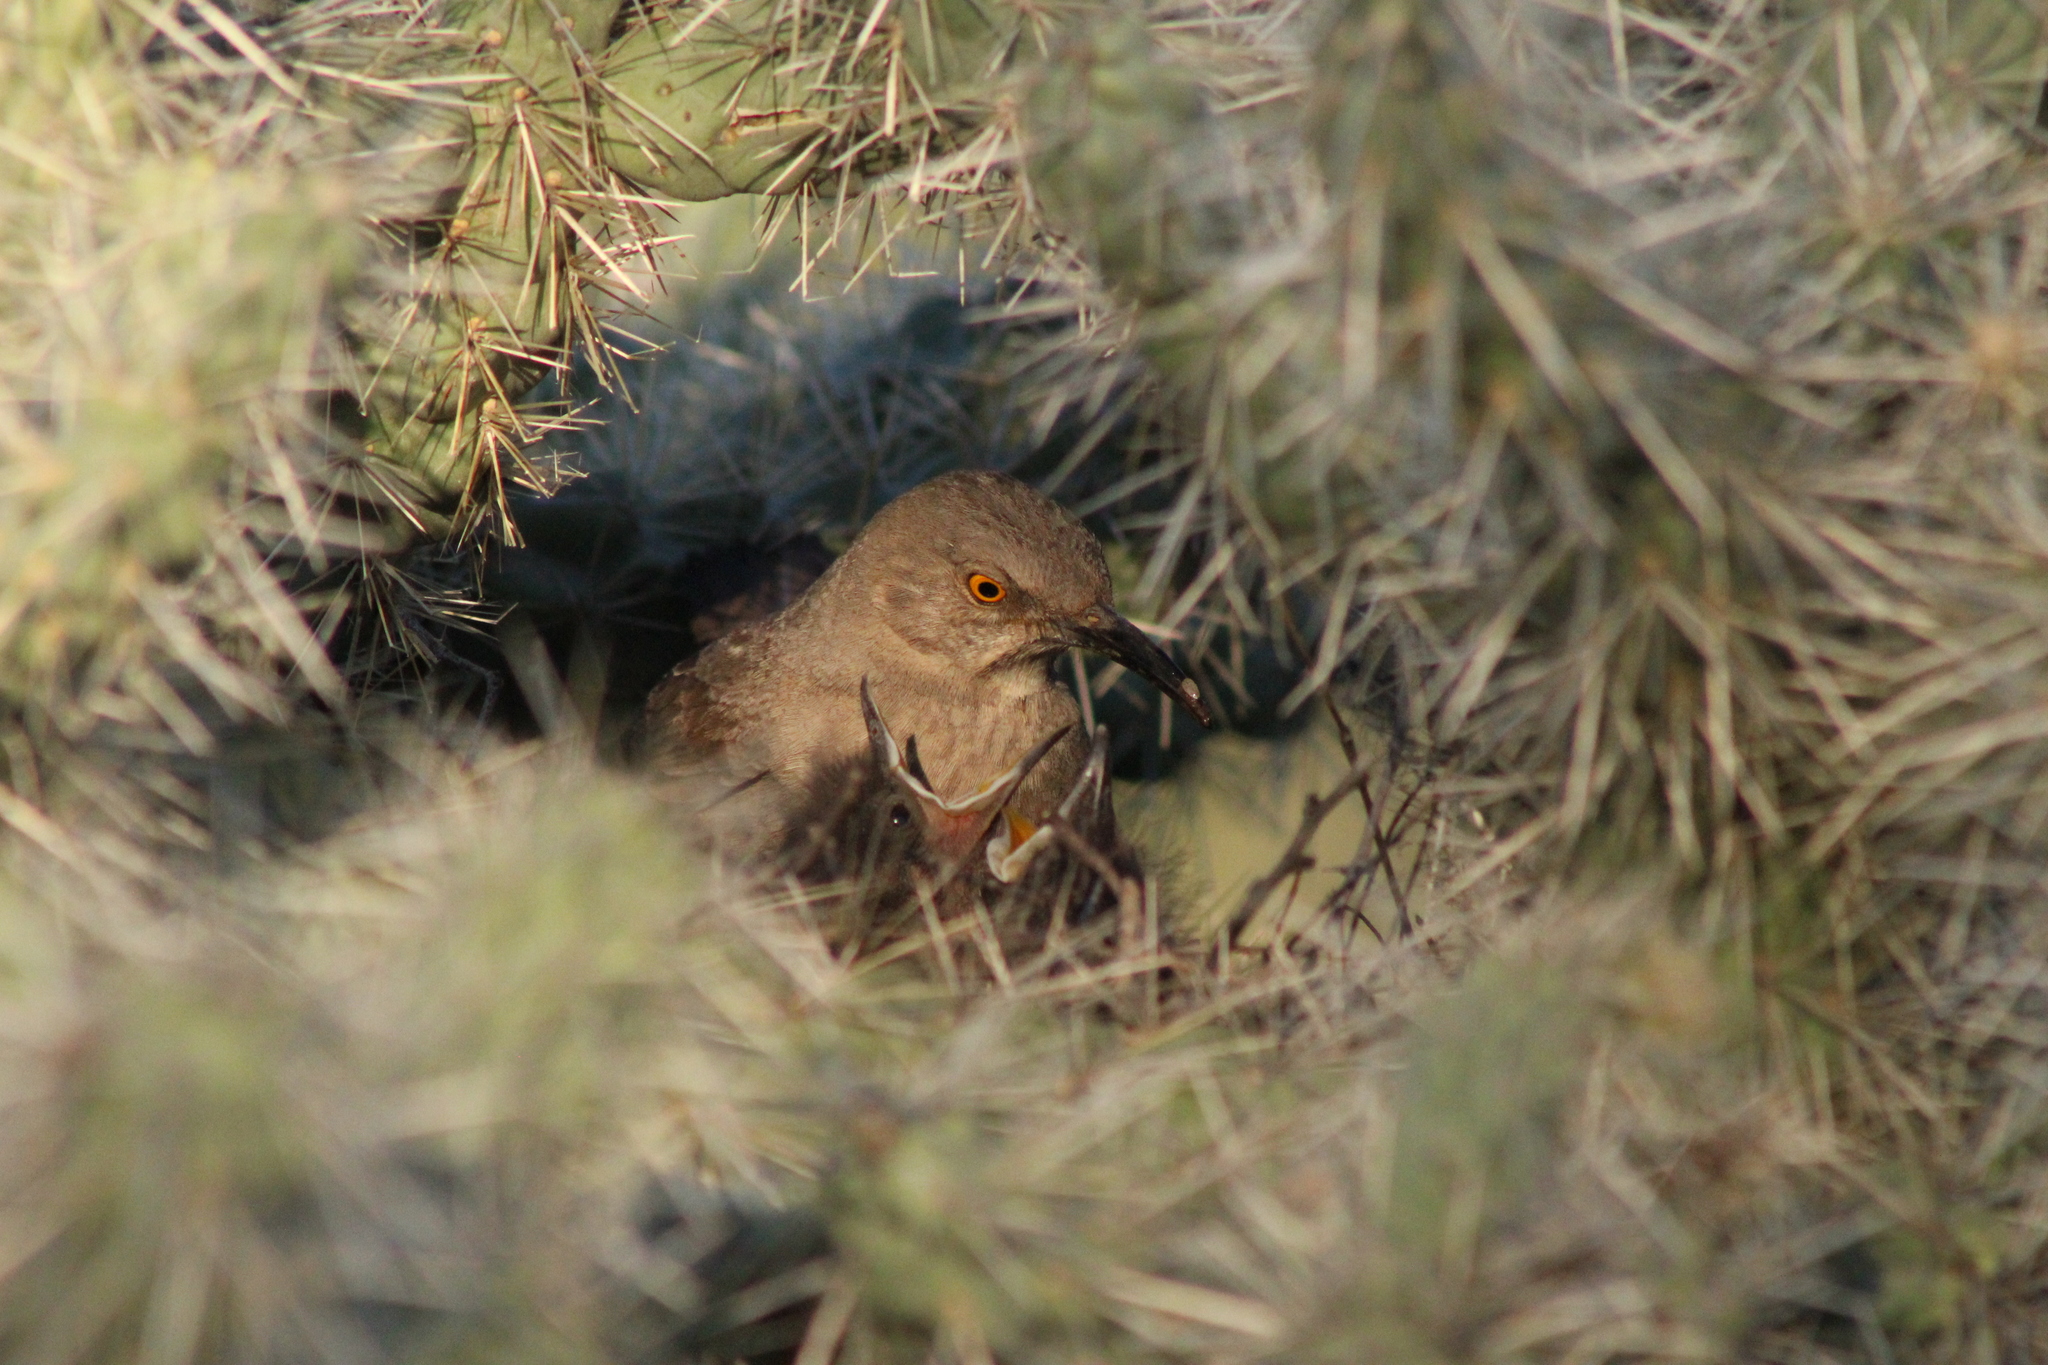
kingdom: Animalia
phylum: Chordata
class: Aves
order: Passeriformes
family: Mimidae
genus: Toxostoma
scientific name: Toxostoma curvirostre
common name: Curve-billed thrasher
